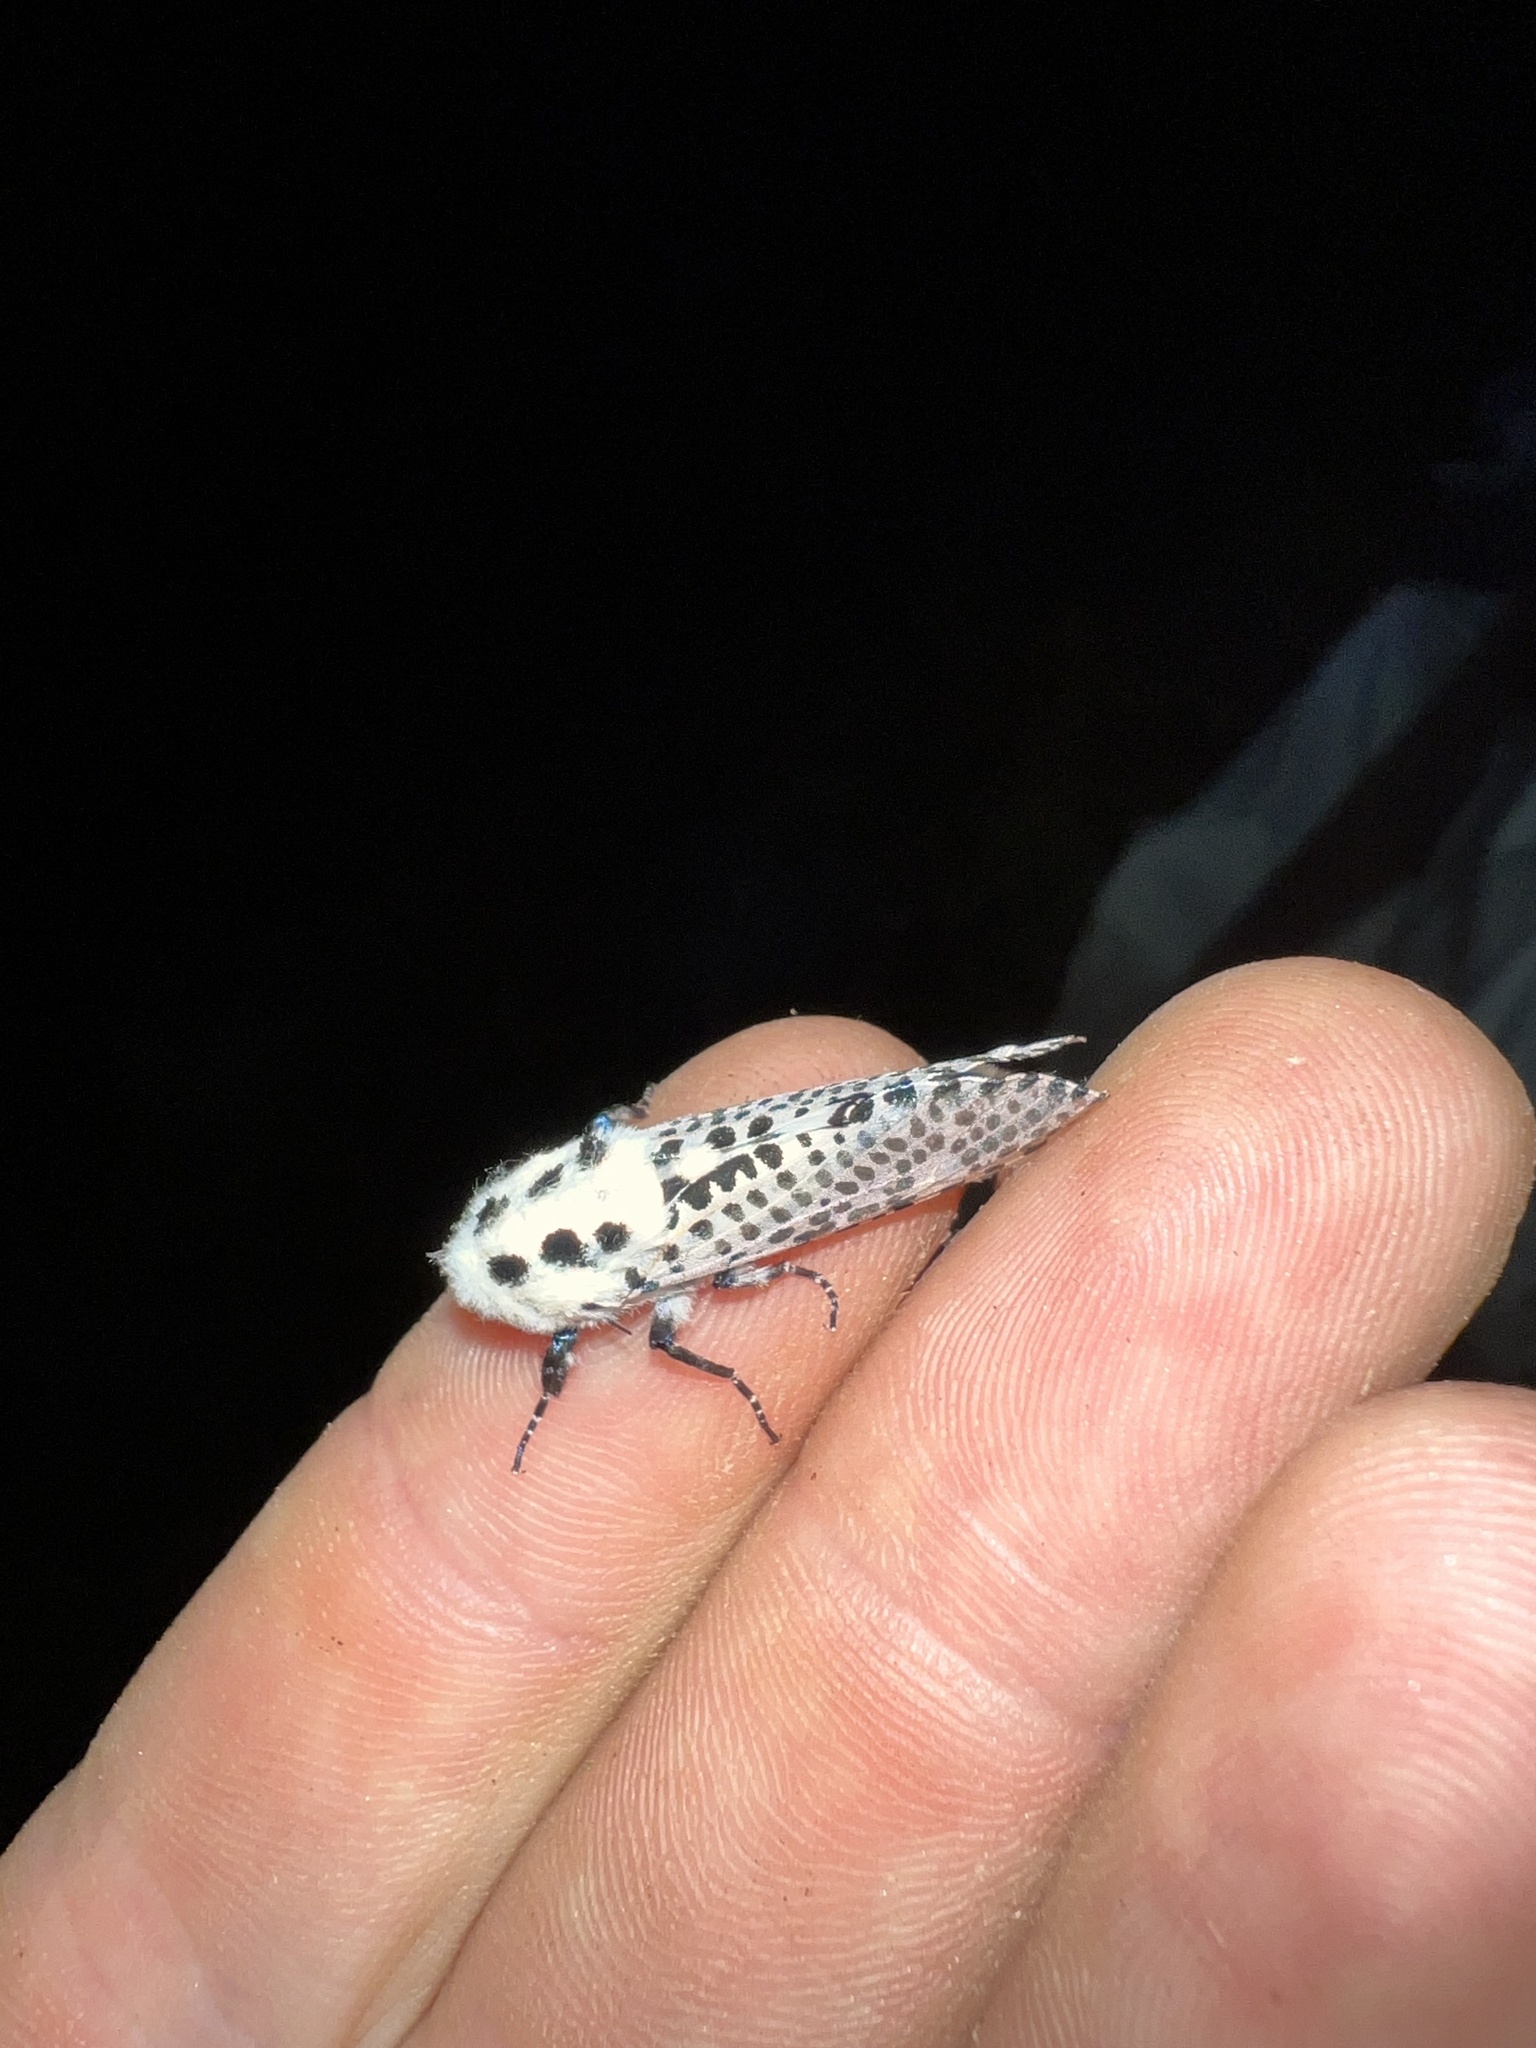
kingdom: Animalia
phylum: Arthropoda
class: Insecta
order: Lepidoptera
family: Cossidae
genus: Zeuzera
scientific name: Zeuzera pyrina
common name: Leopard moth
